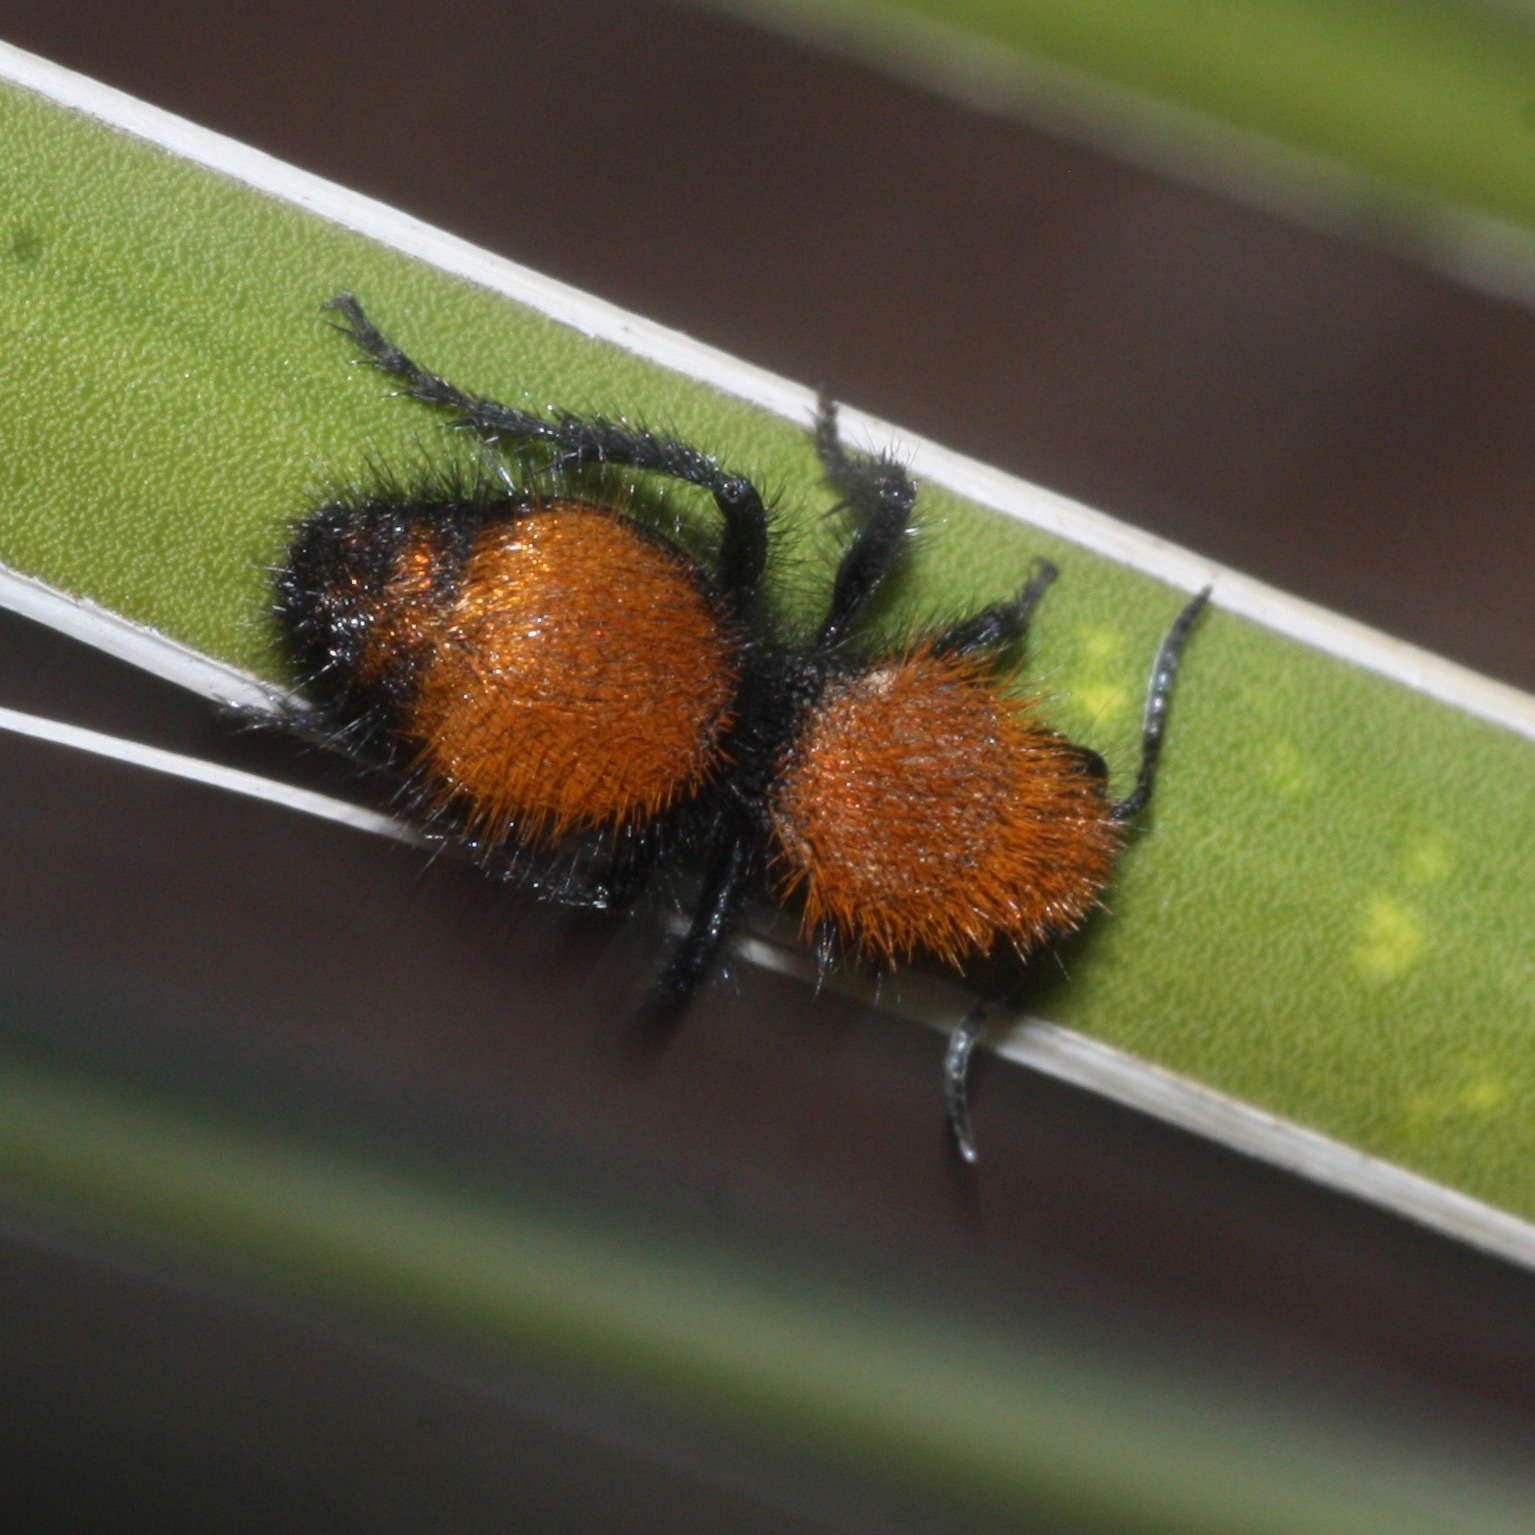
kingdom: Animalia
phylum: Arthropoda
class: Insecta
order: Hymenoptera
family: Mutillidae
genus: Dasymutilla
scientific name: Dasymutilla vestita
